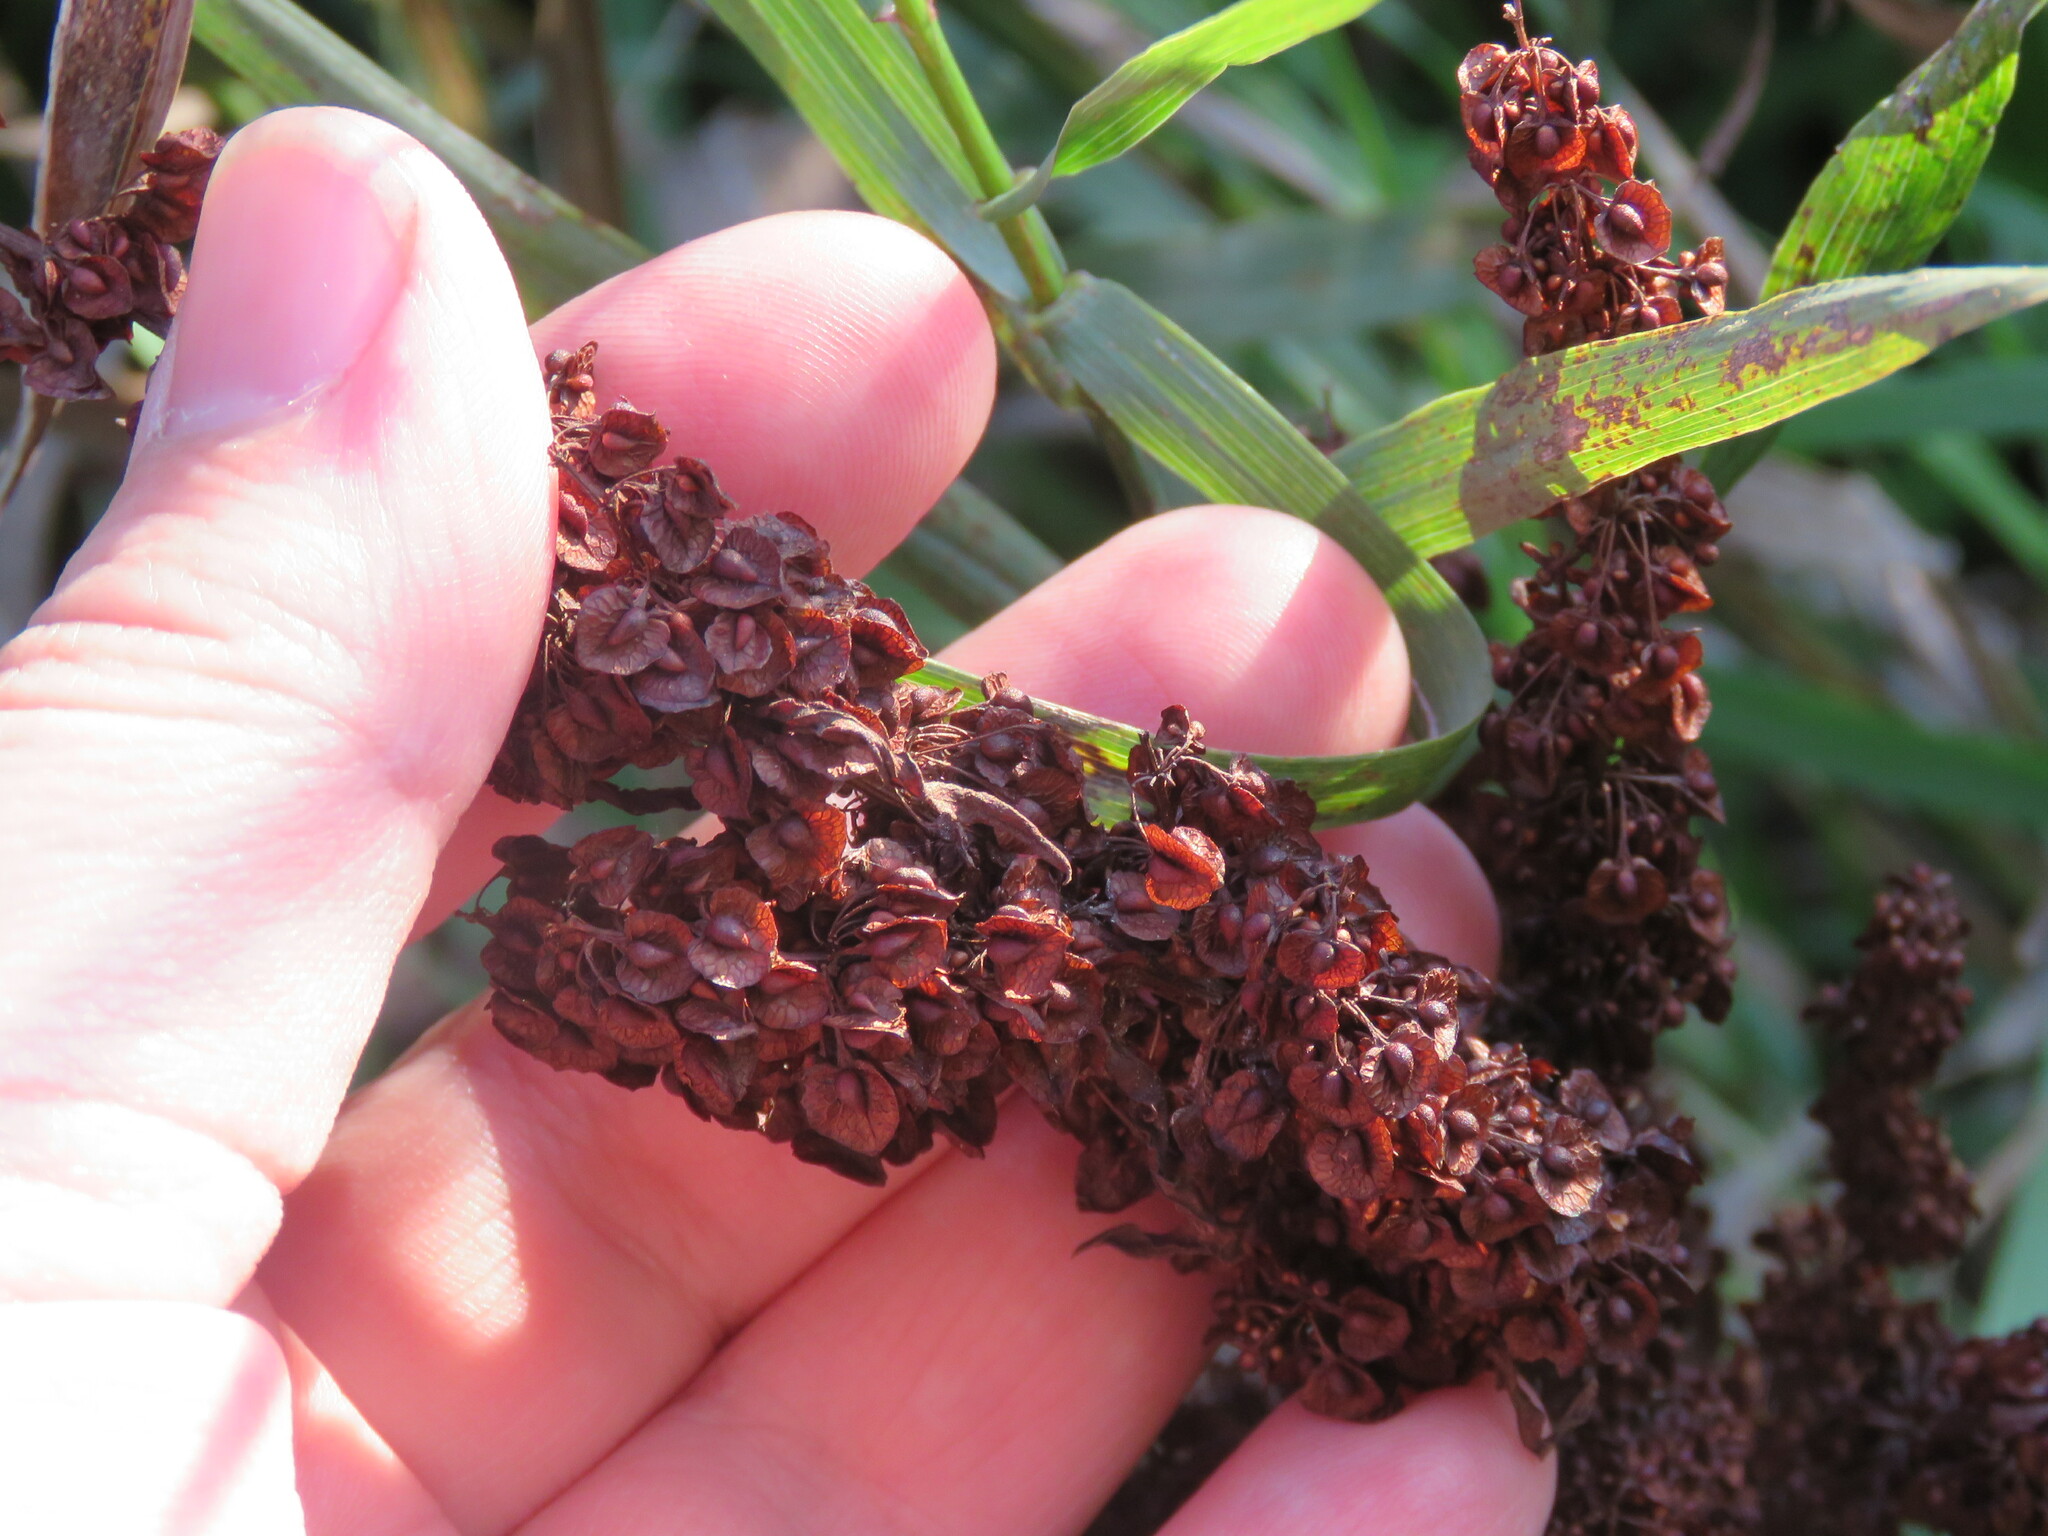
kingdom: Plantae
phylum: Tracheophyta
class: Magnoliopsida
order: Caryophyllales
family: Polygonaceae
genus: Rumex
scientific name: Rumex crispus
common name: Curled dock
